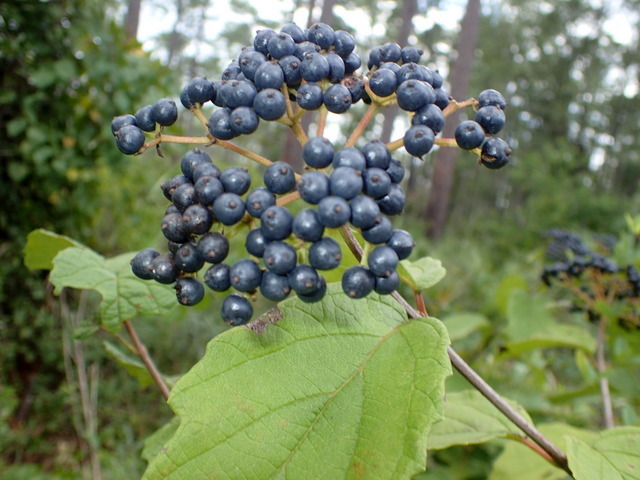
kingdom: Plantae
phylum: Tracheophyta
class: Magnoliopsida
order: Dipsacales
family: Viburnaceae
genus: Viburnum
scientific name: Viburnum scabrellum
